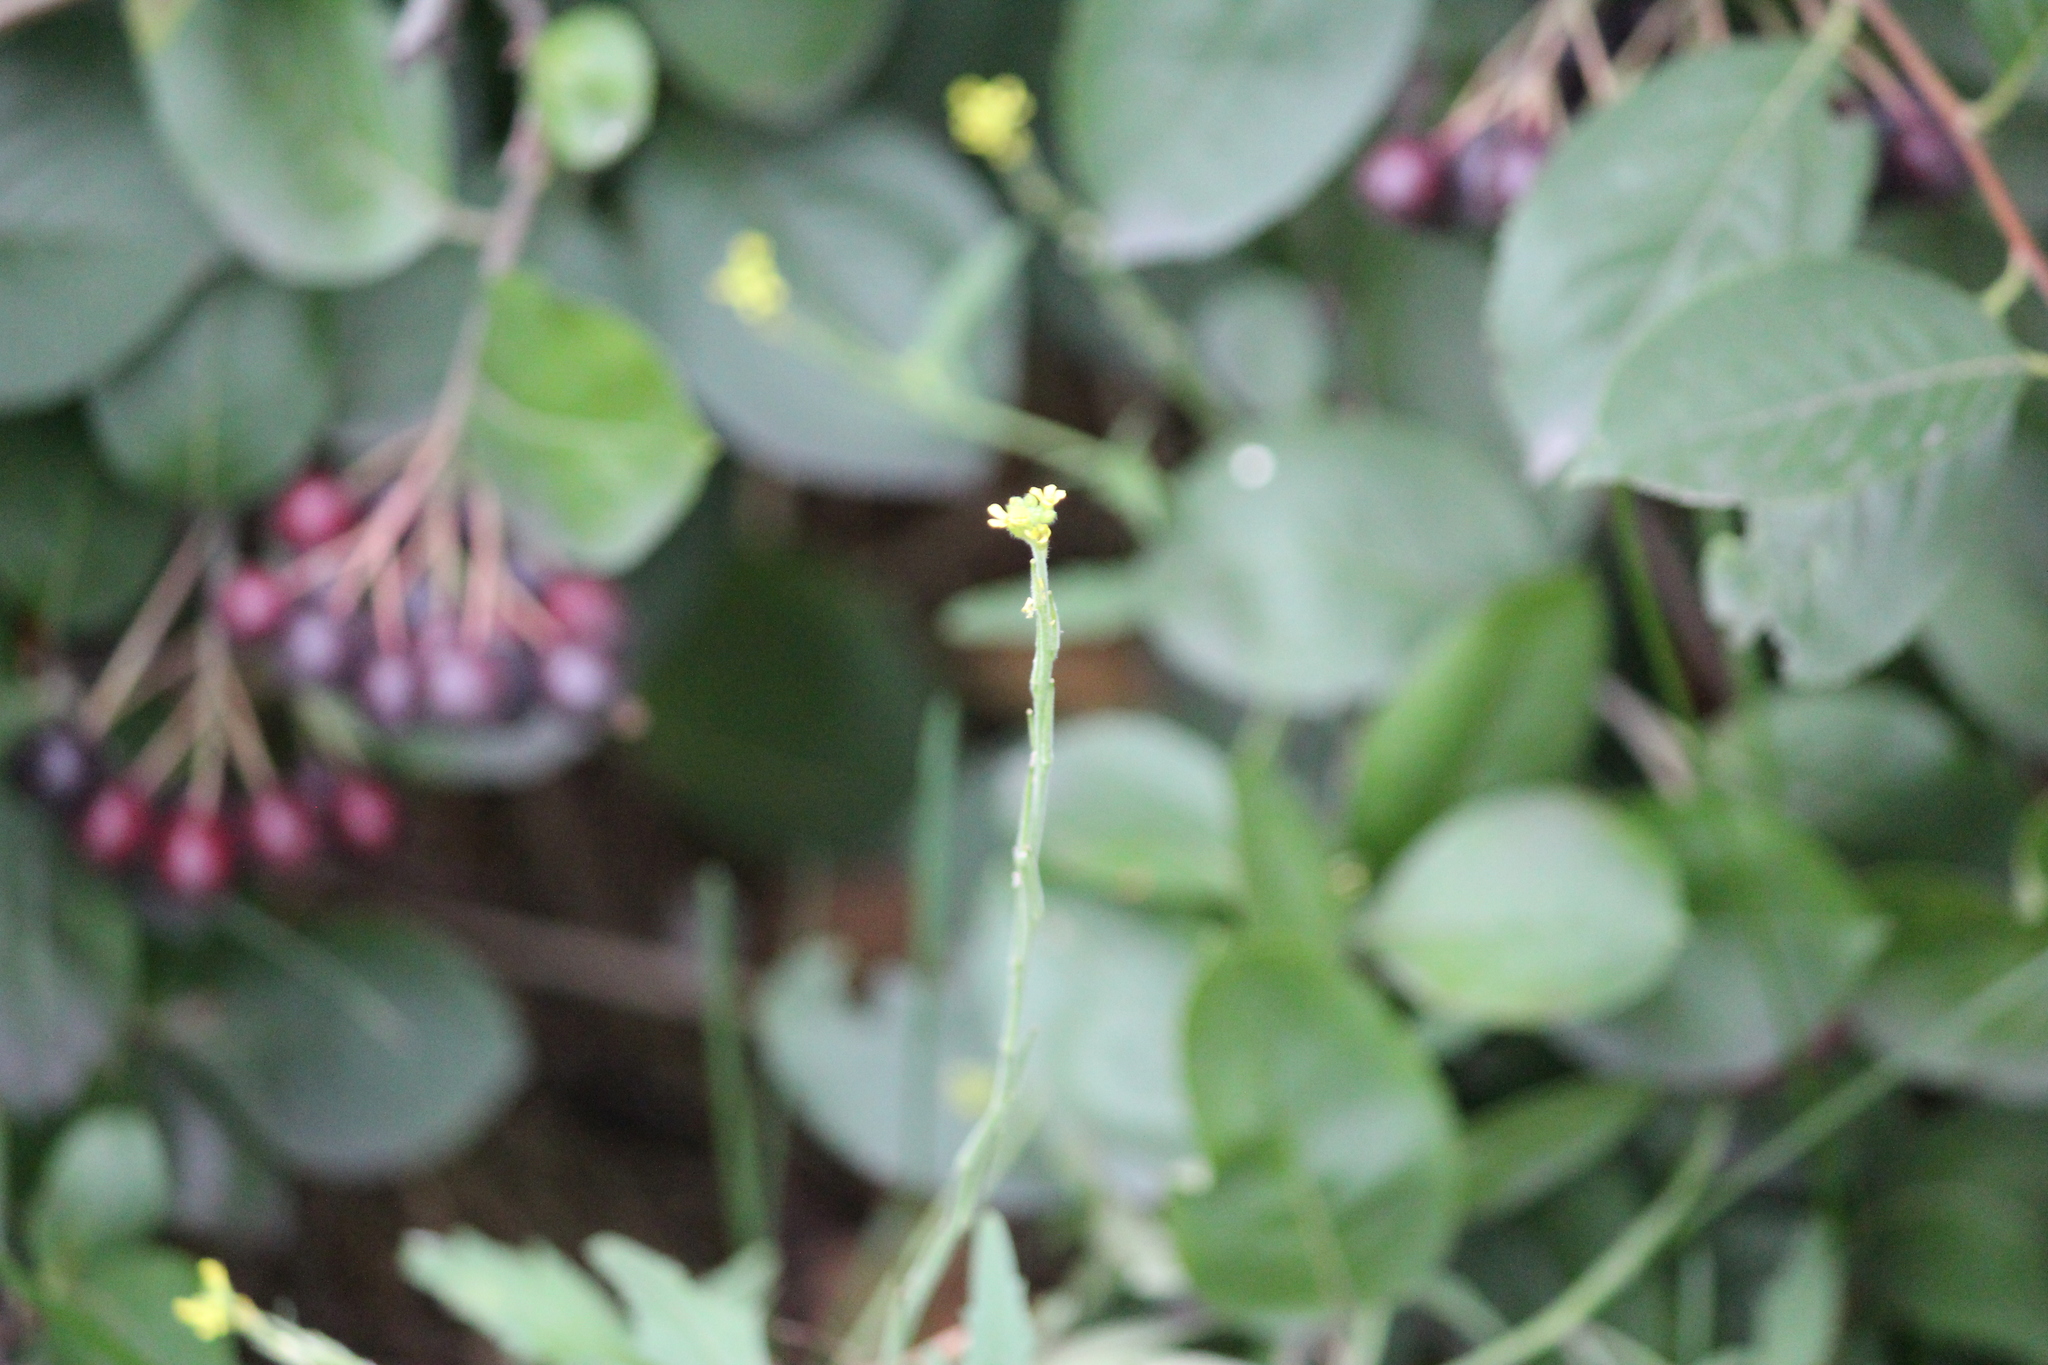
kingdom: Plantae
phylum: Tracheophyta
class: Magnoliopsida
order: Brassicales
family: Brassicaceae
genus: Sisymbrium
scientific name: Sisymbrium officinale
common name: Hedge mustard
